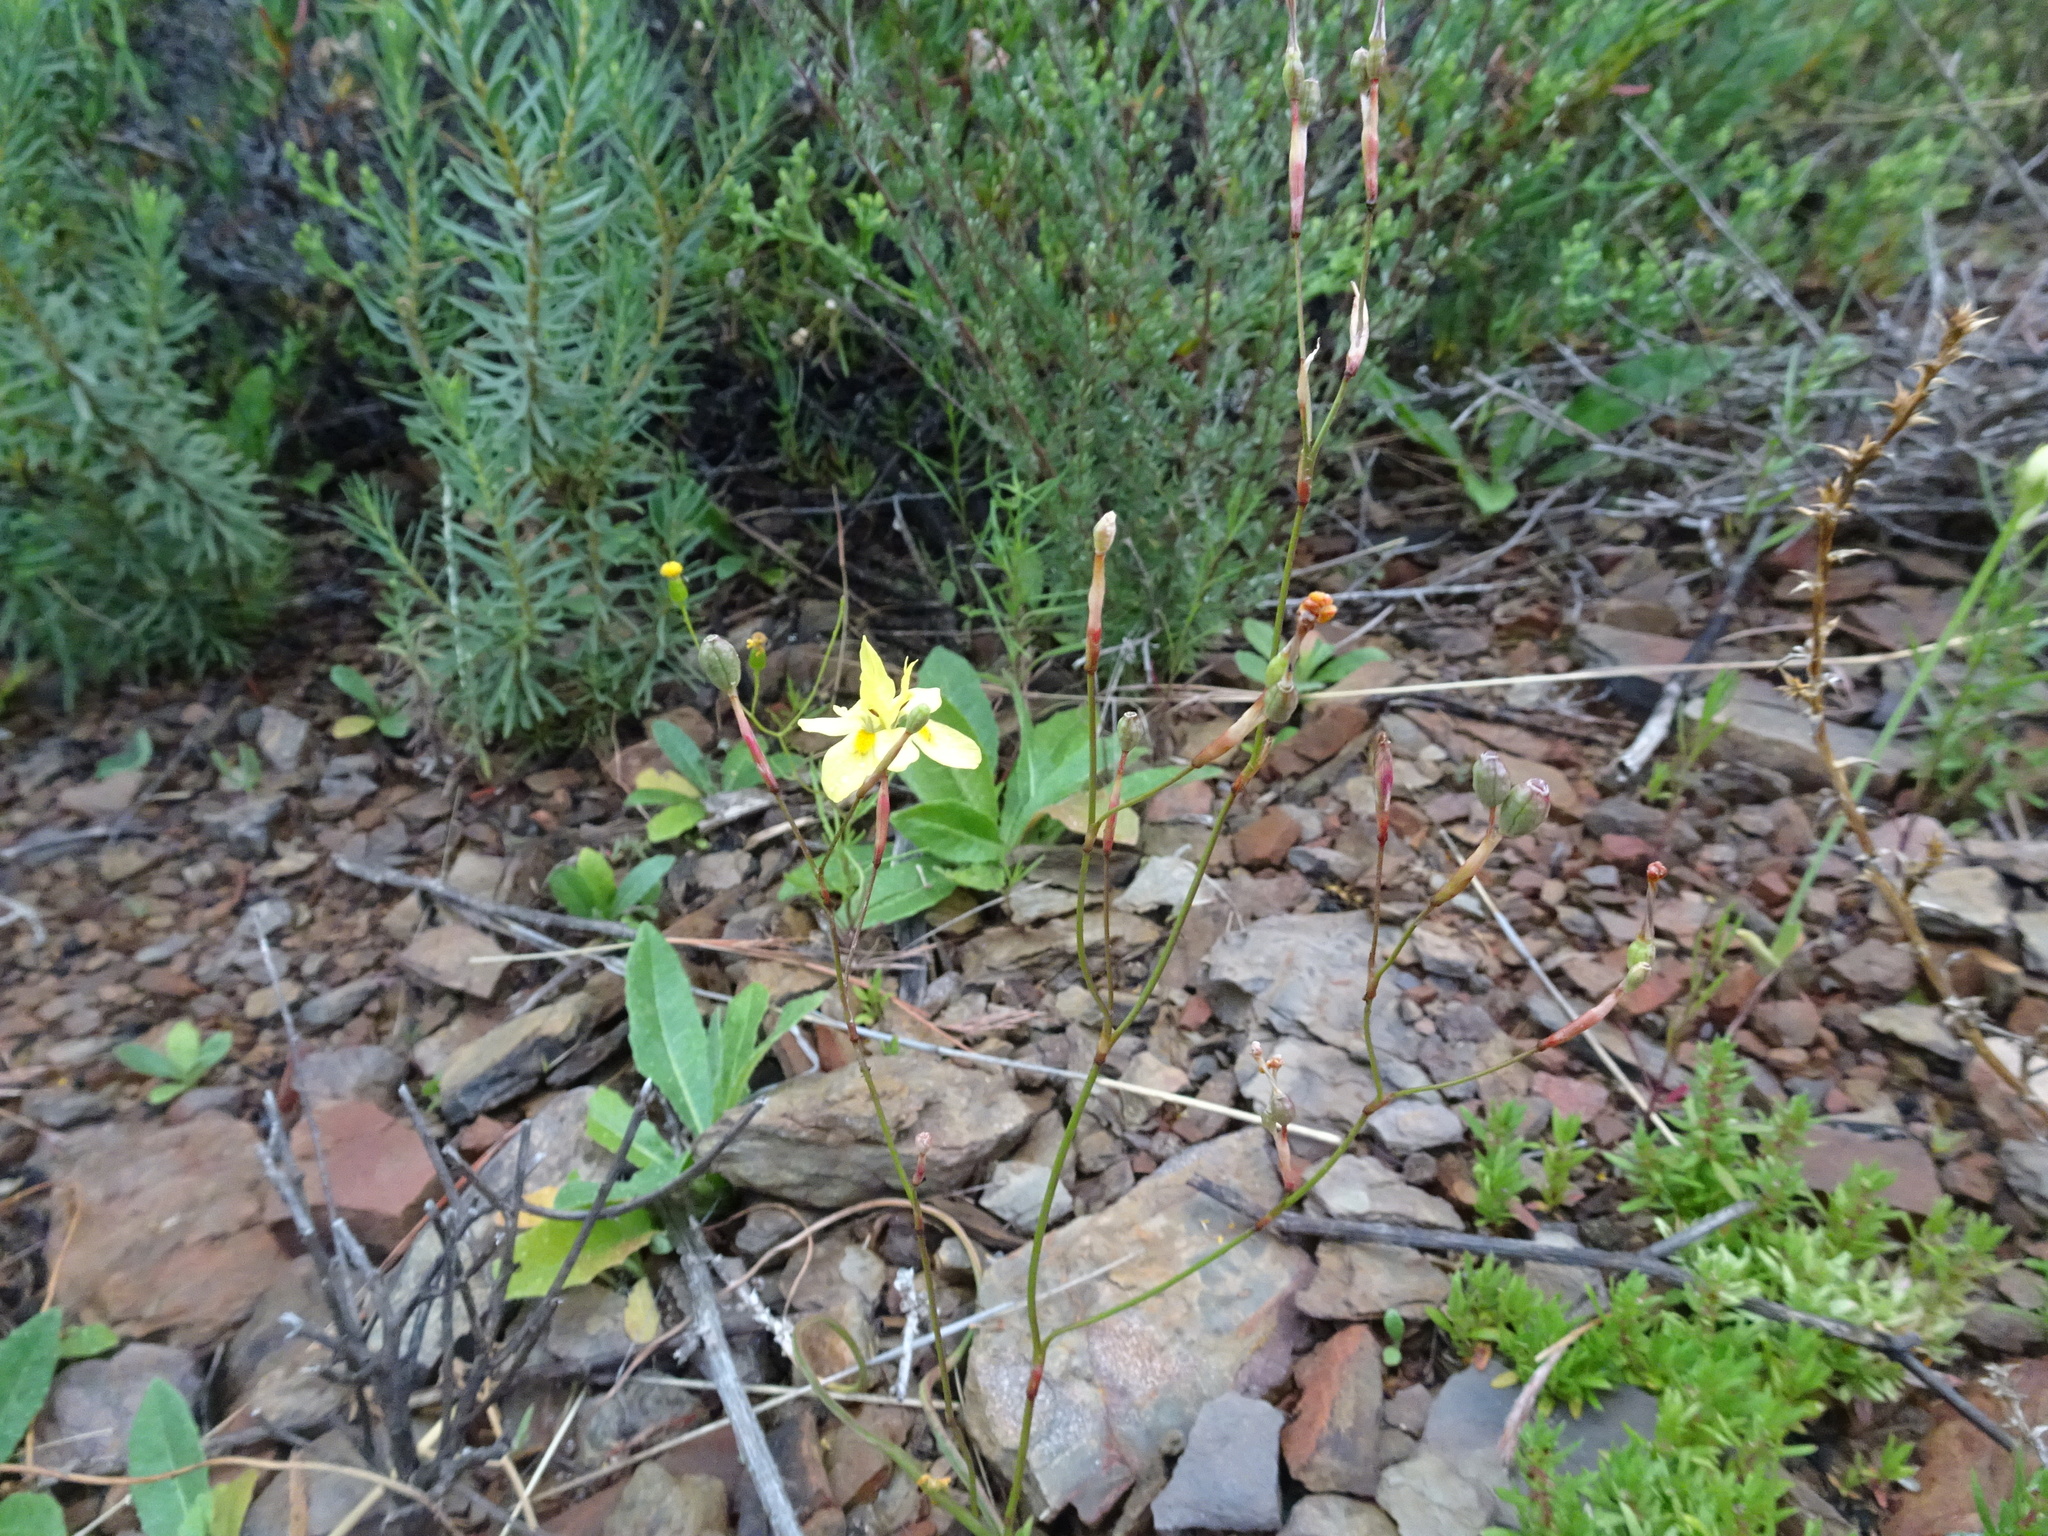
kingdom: Plantae
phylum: Tracheophyta
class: Liliopsida
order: Asparagales
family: Iridaceae
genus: Moraea
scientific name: Moraea gawleri
